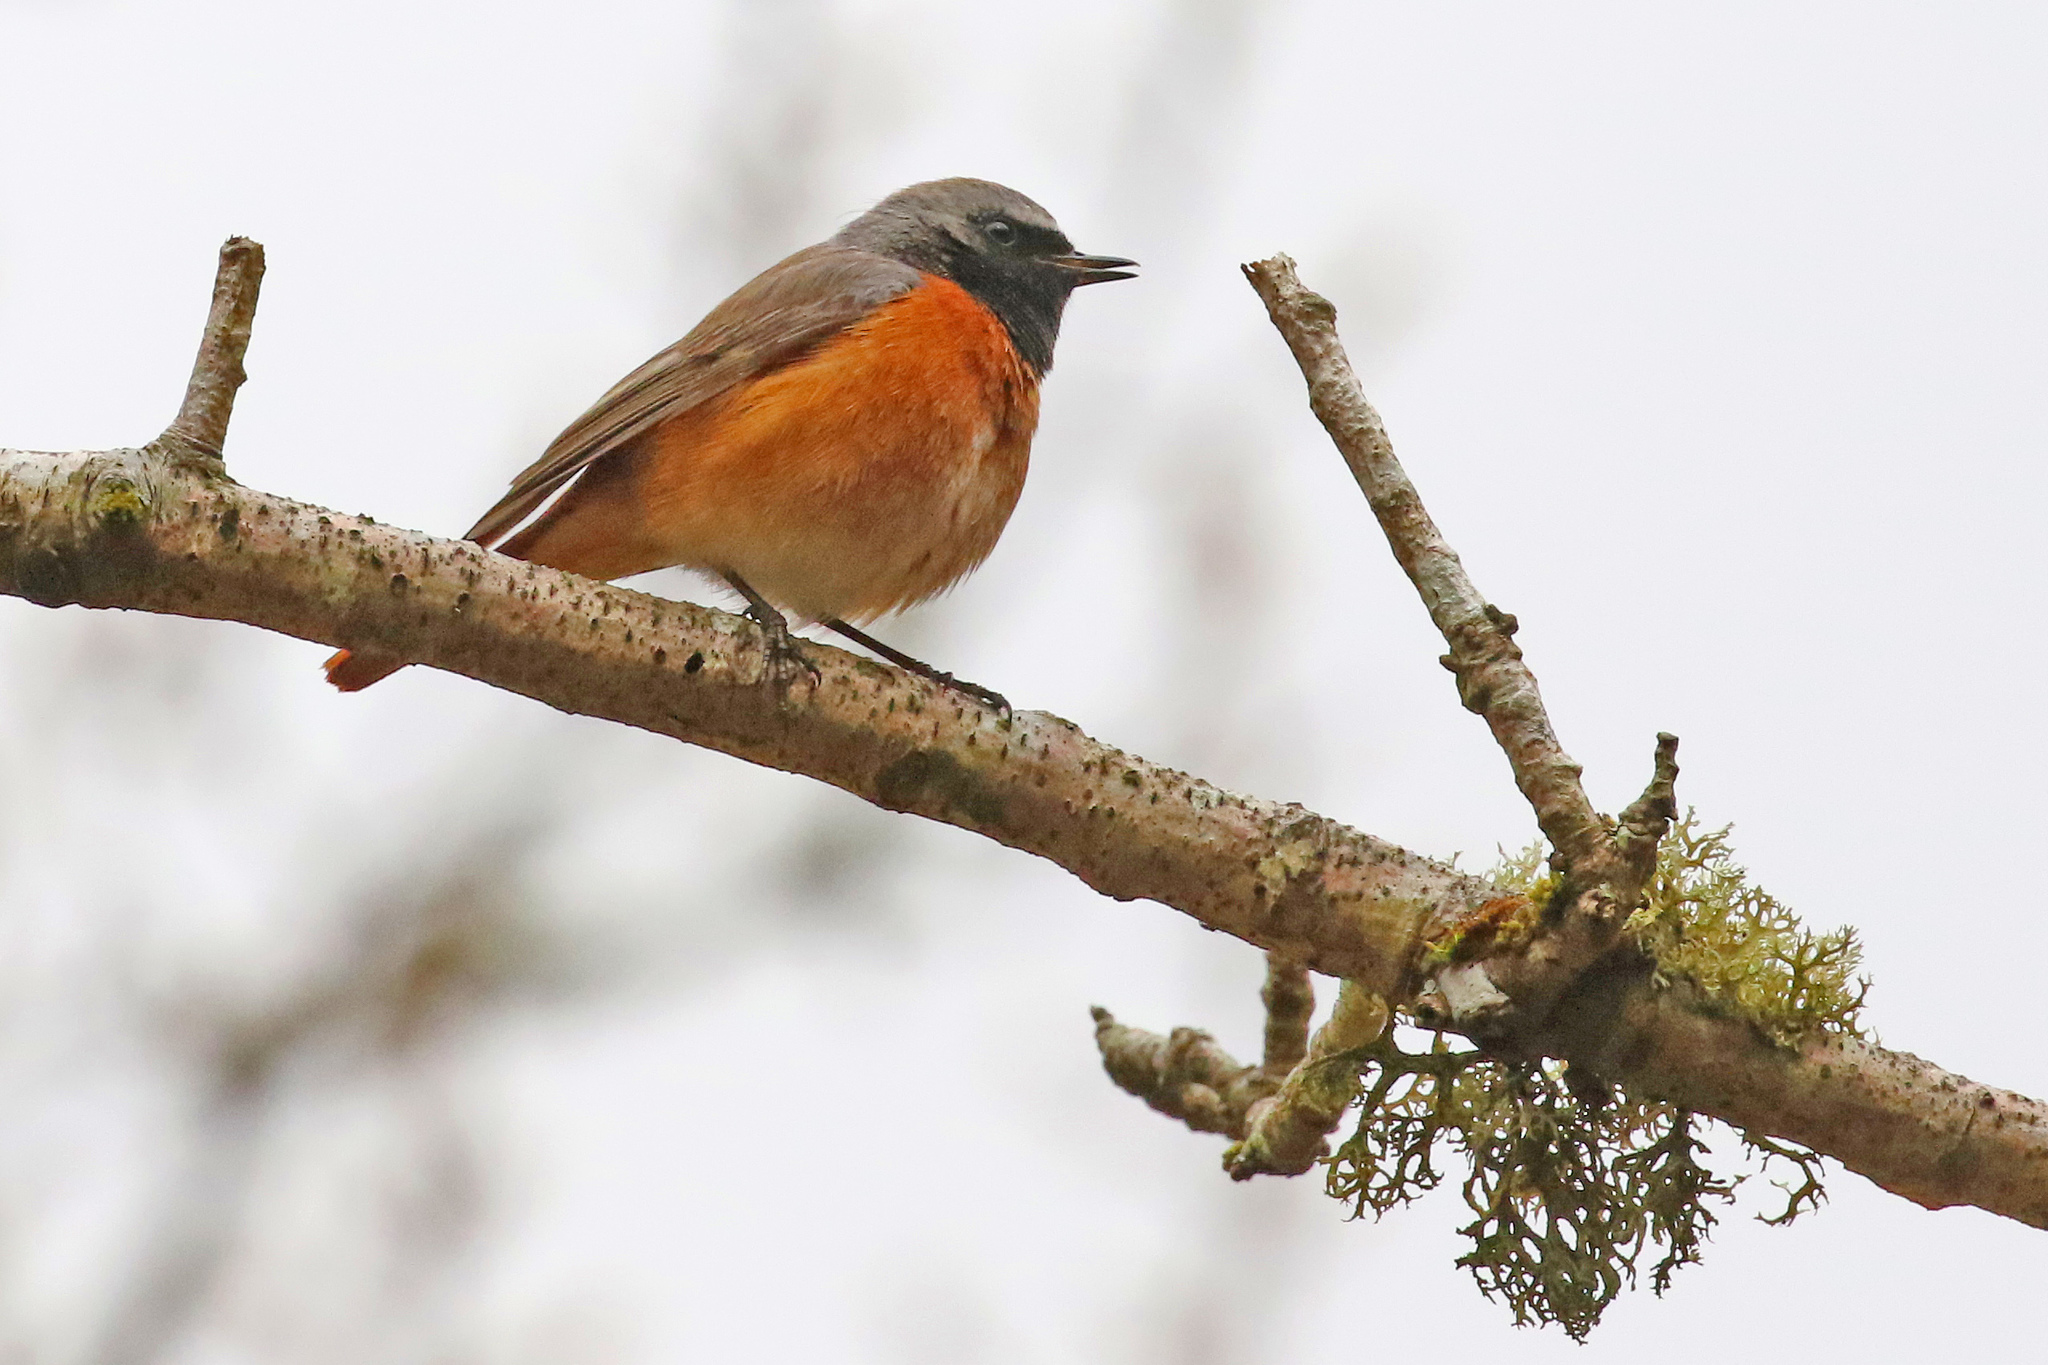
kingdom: Animalia
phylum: Chordata
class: Aves
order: Passeriformes
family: Muscicapidae
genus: Phoenicurus
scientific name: Phoenicurus phoenicurus
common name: Common redstart
